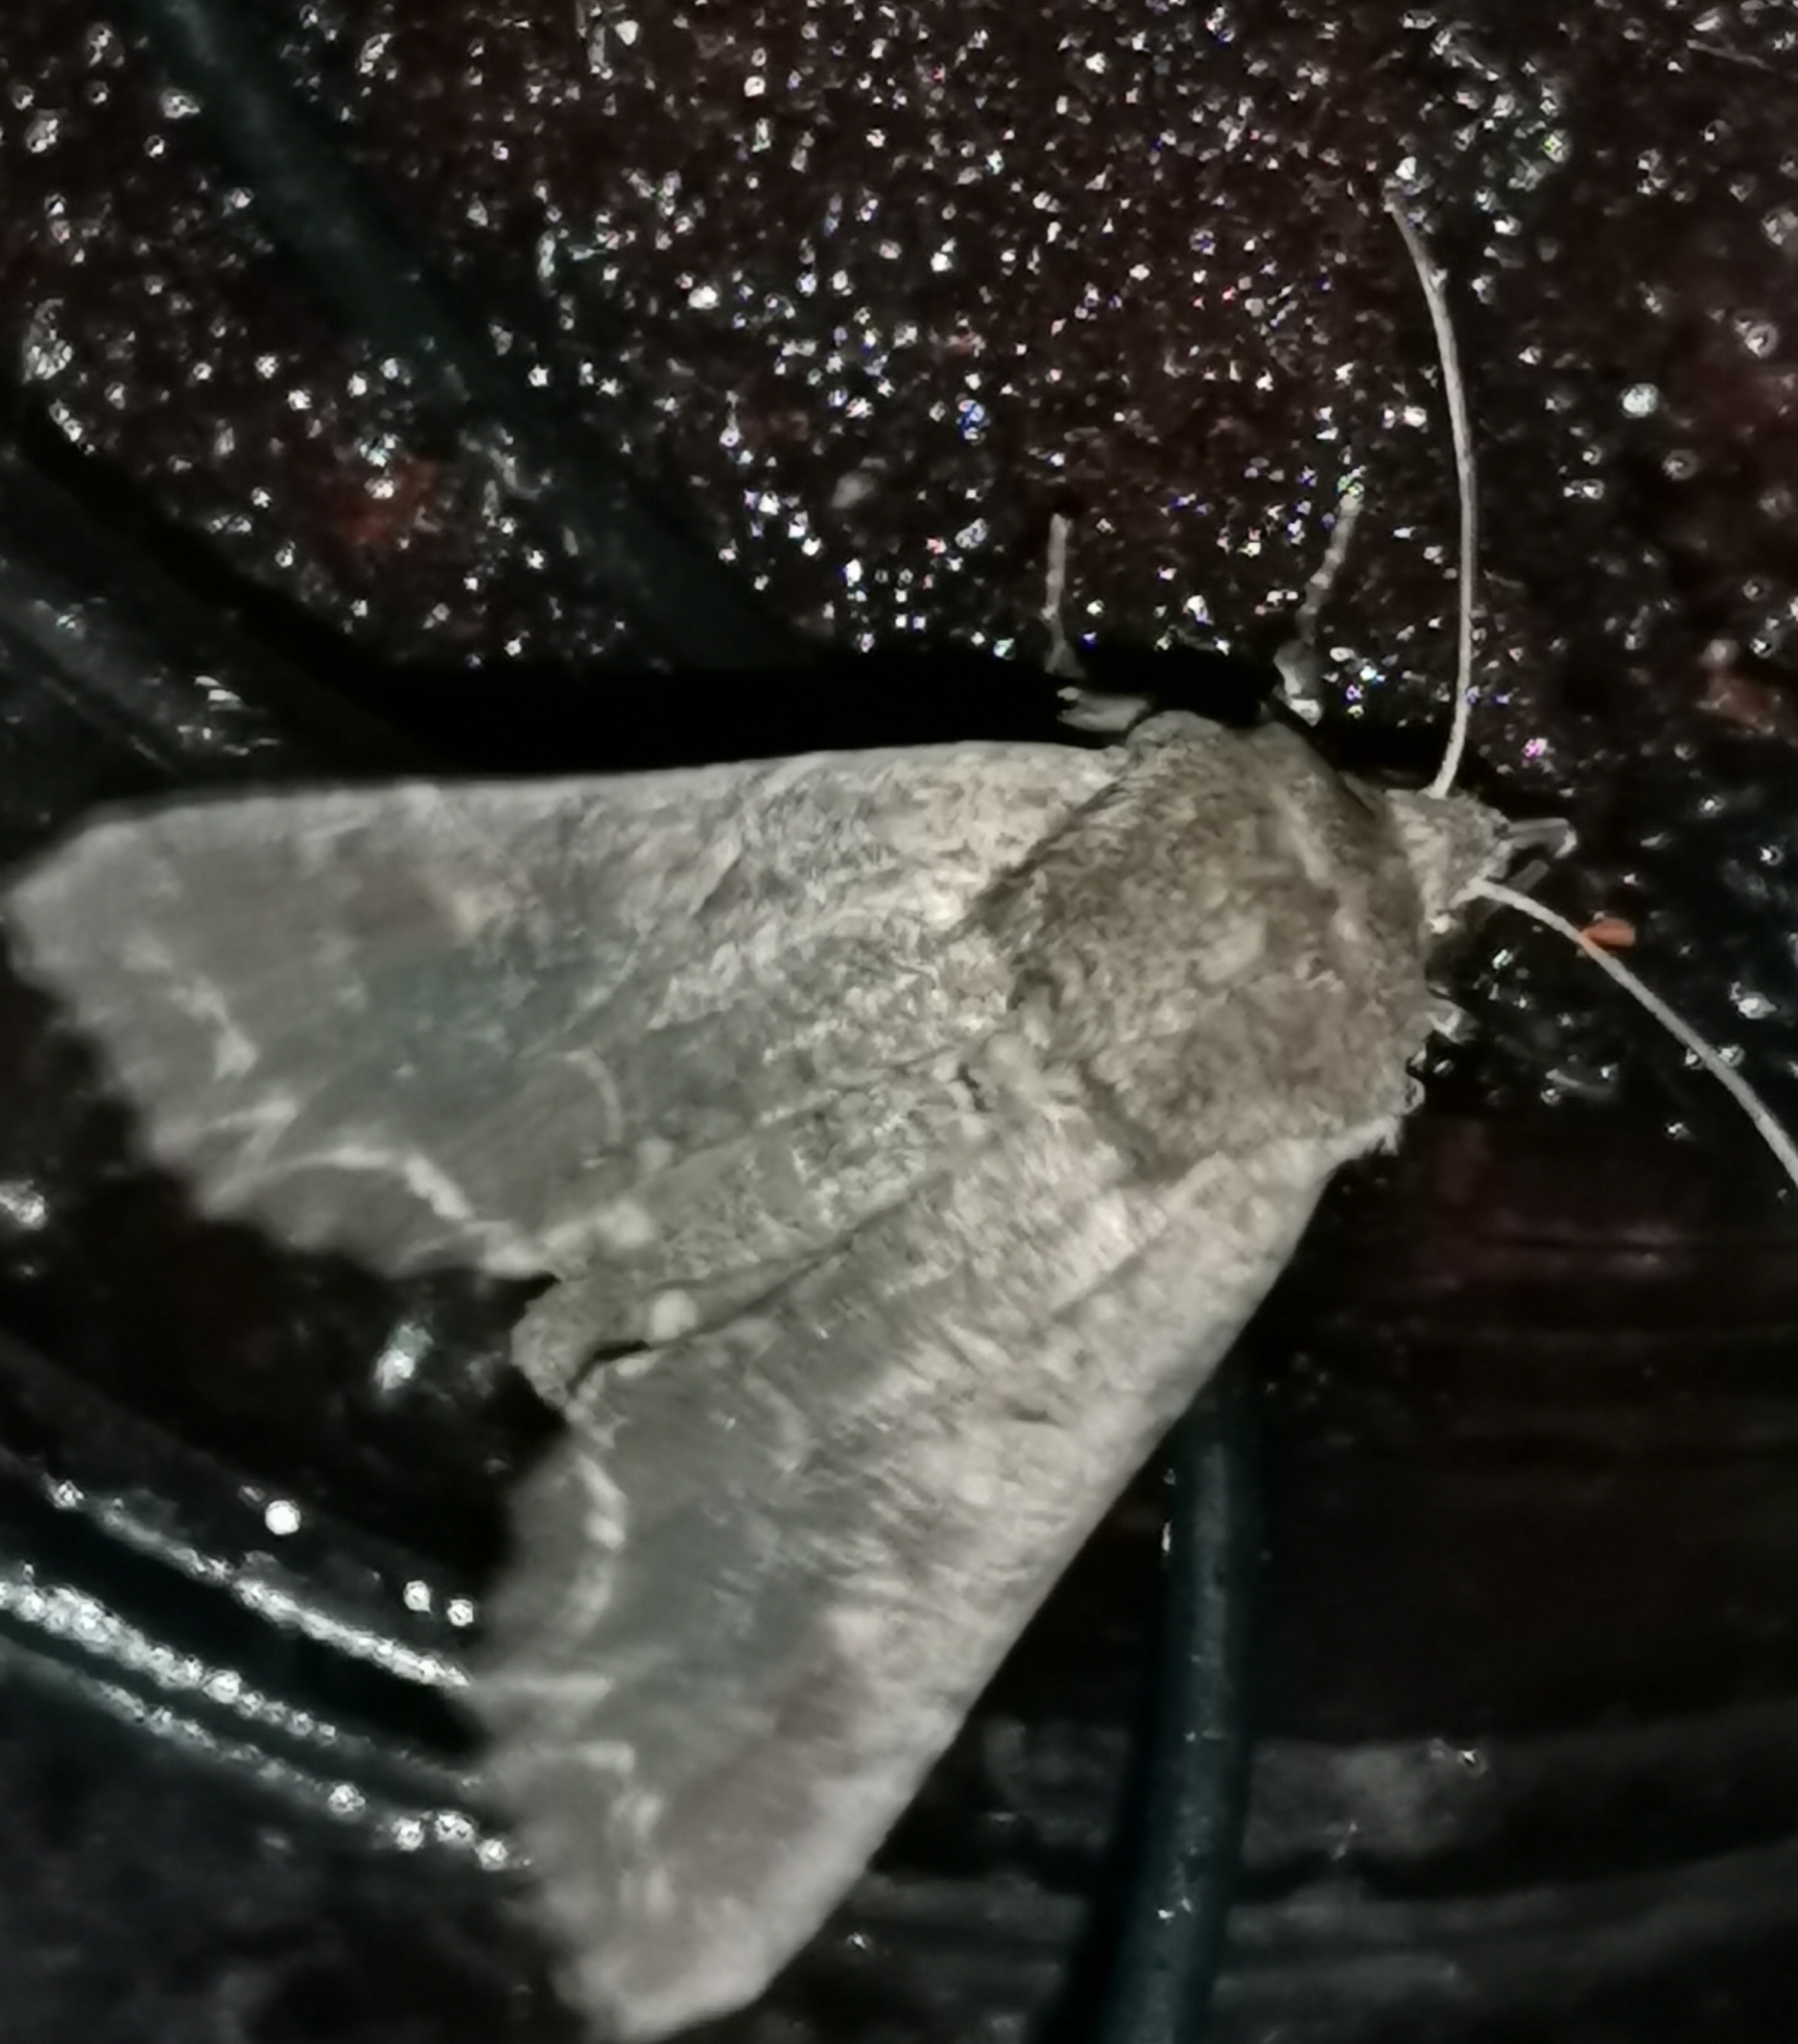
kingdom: Animalia
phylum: Arthropoda
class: Insecta
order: Lepidoptera
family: Noctuidae
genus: Lacanobia
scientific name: Lacanobia suasa
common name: Dog's tooth
